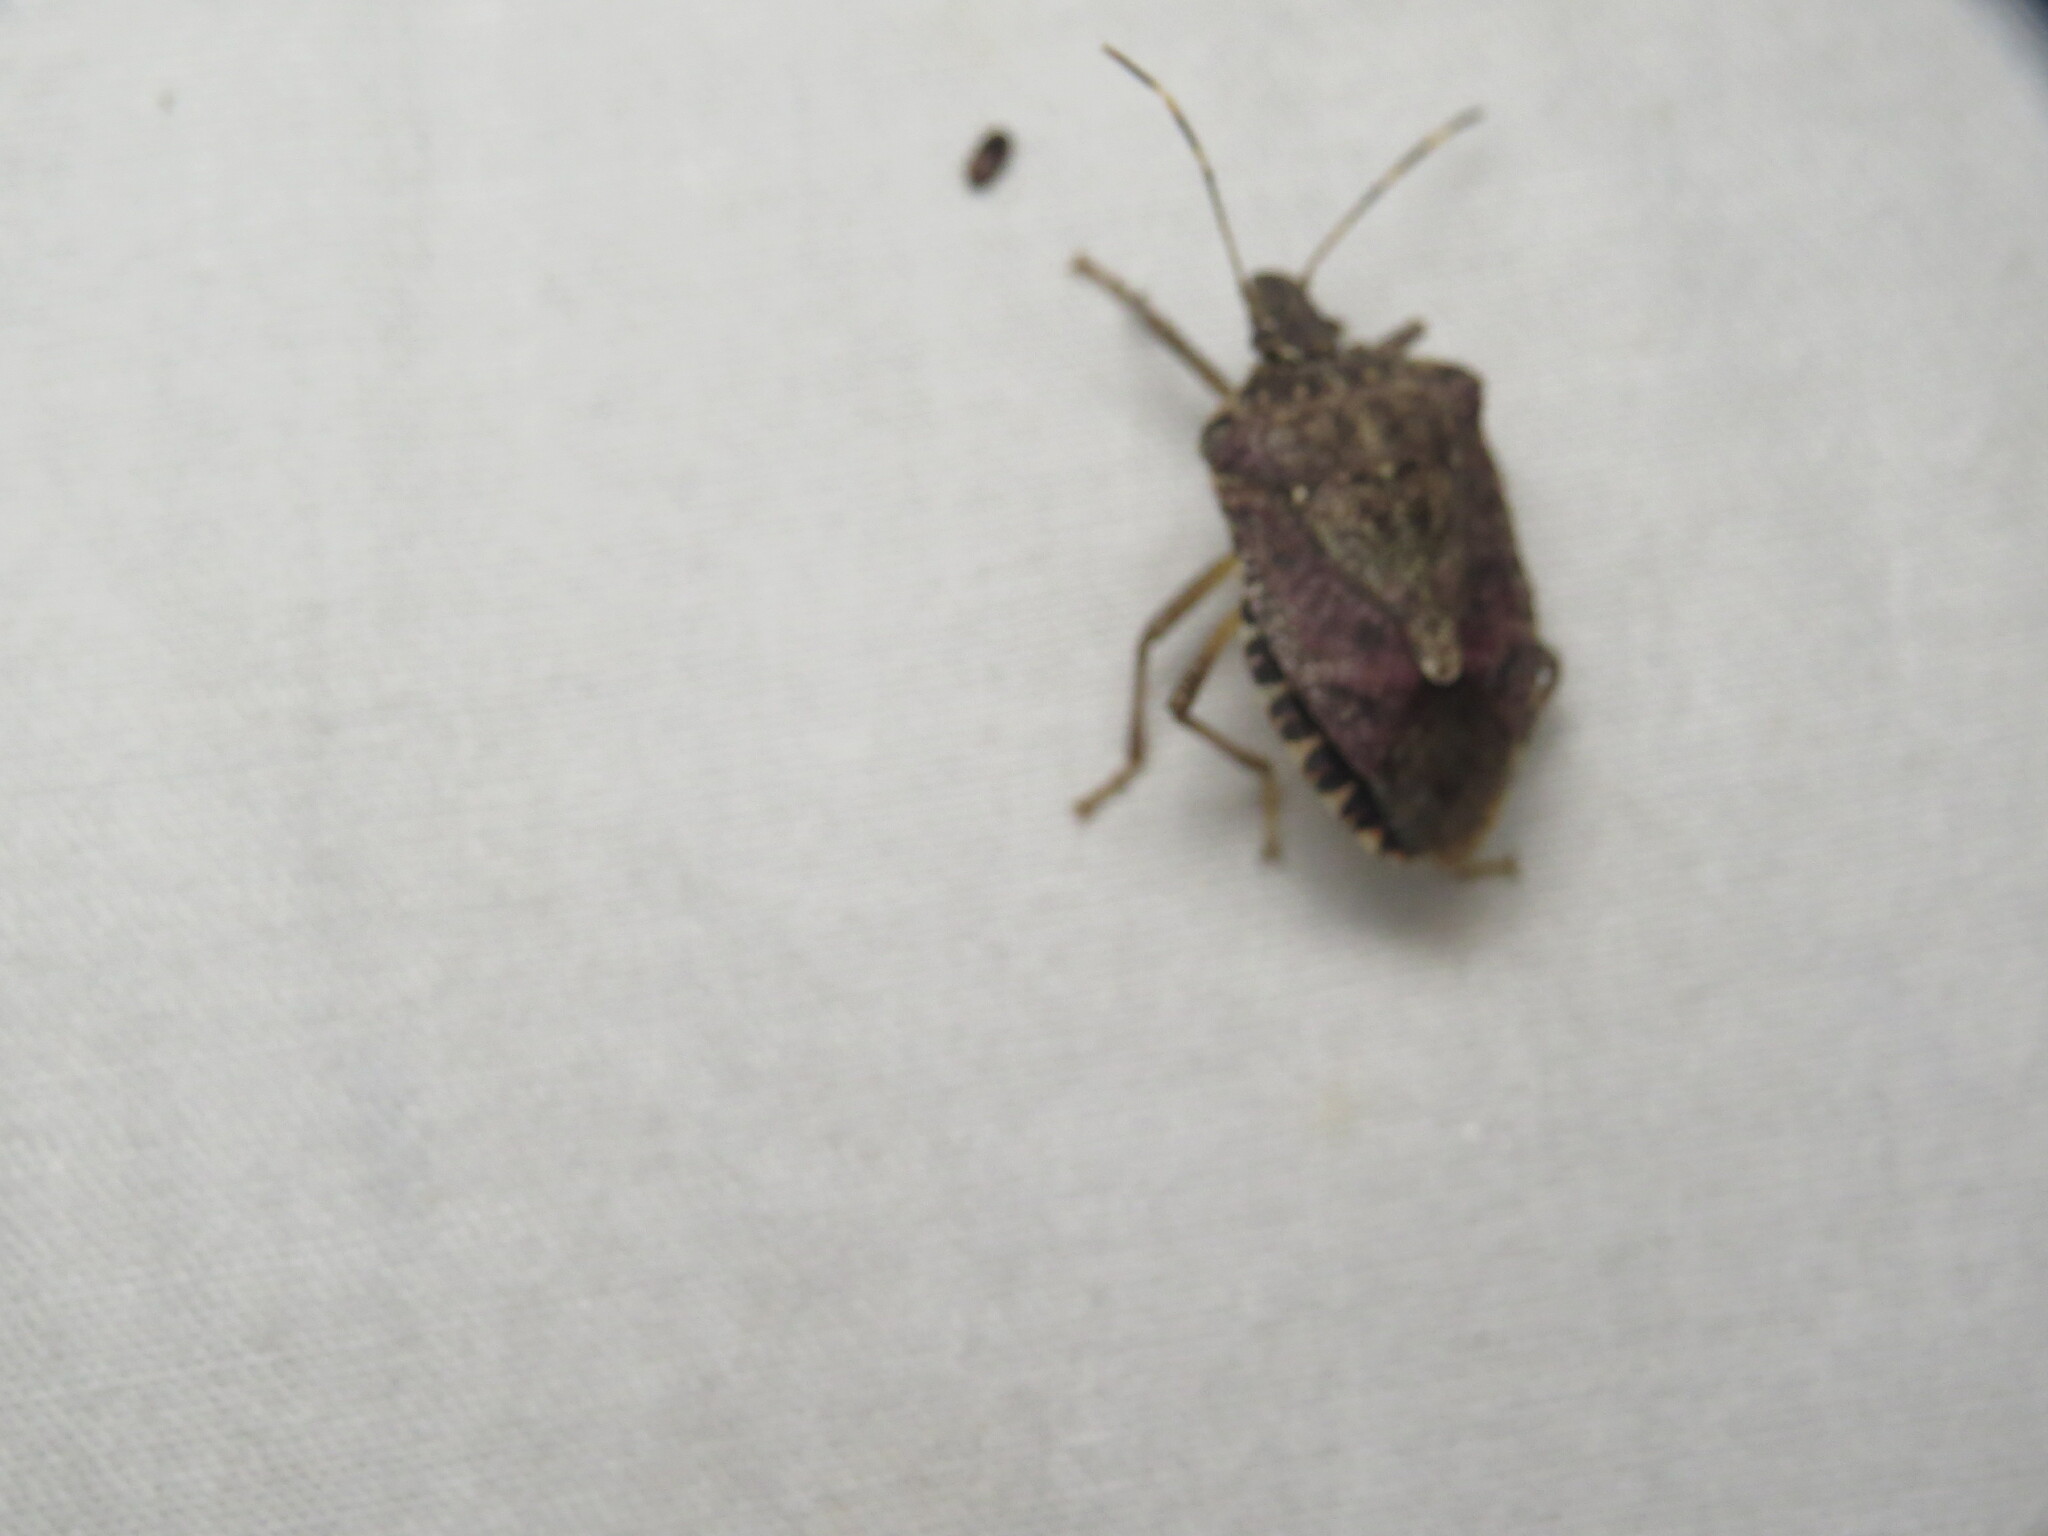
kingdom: Animalia
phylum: Arthropoda
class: Insecta
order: Hemiptera
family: Pentatomidae
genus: Halyomorpha
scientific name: Halyomorpha halys
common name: Brown marmorated stink bug
